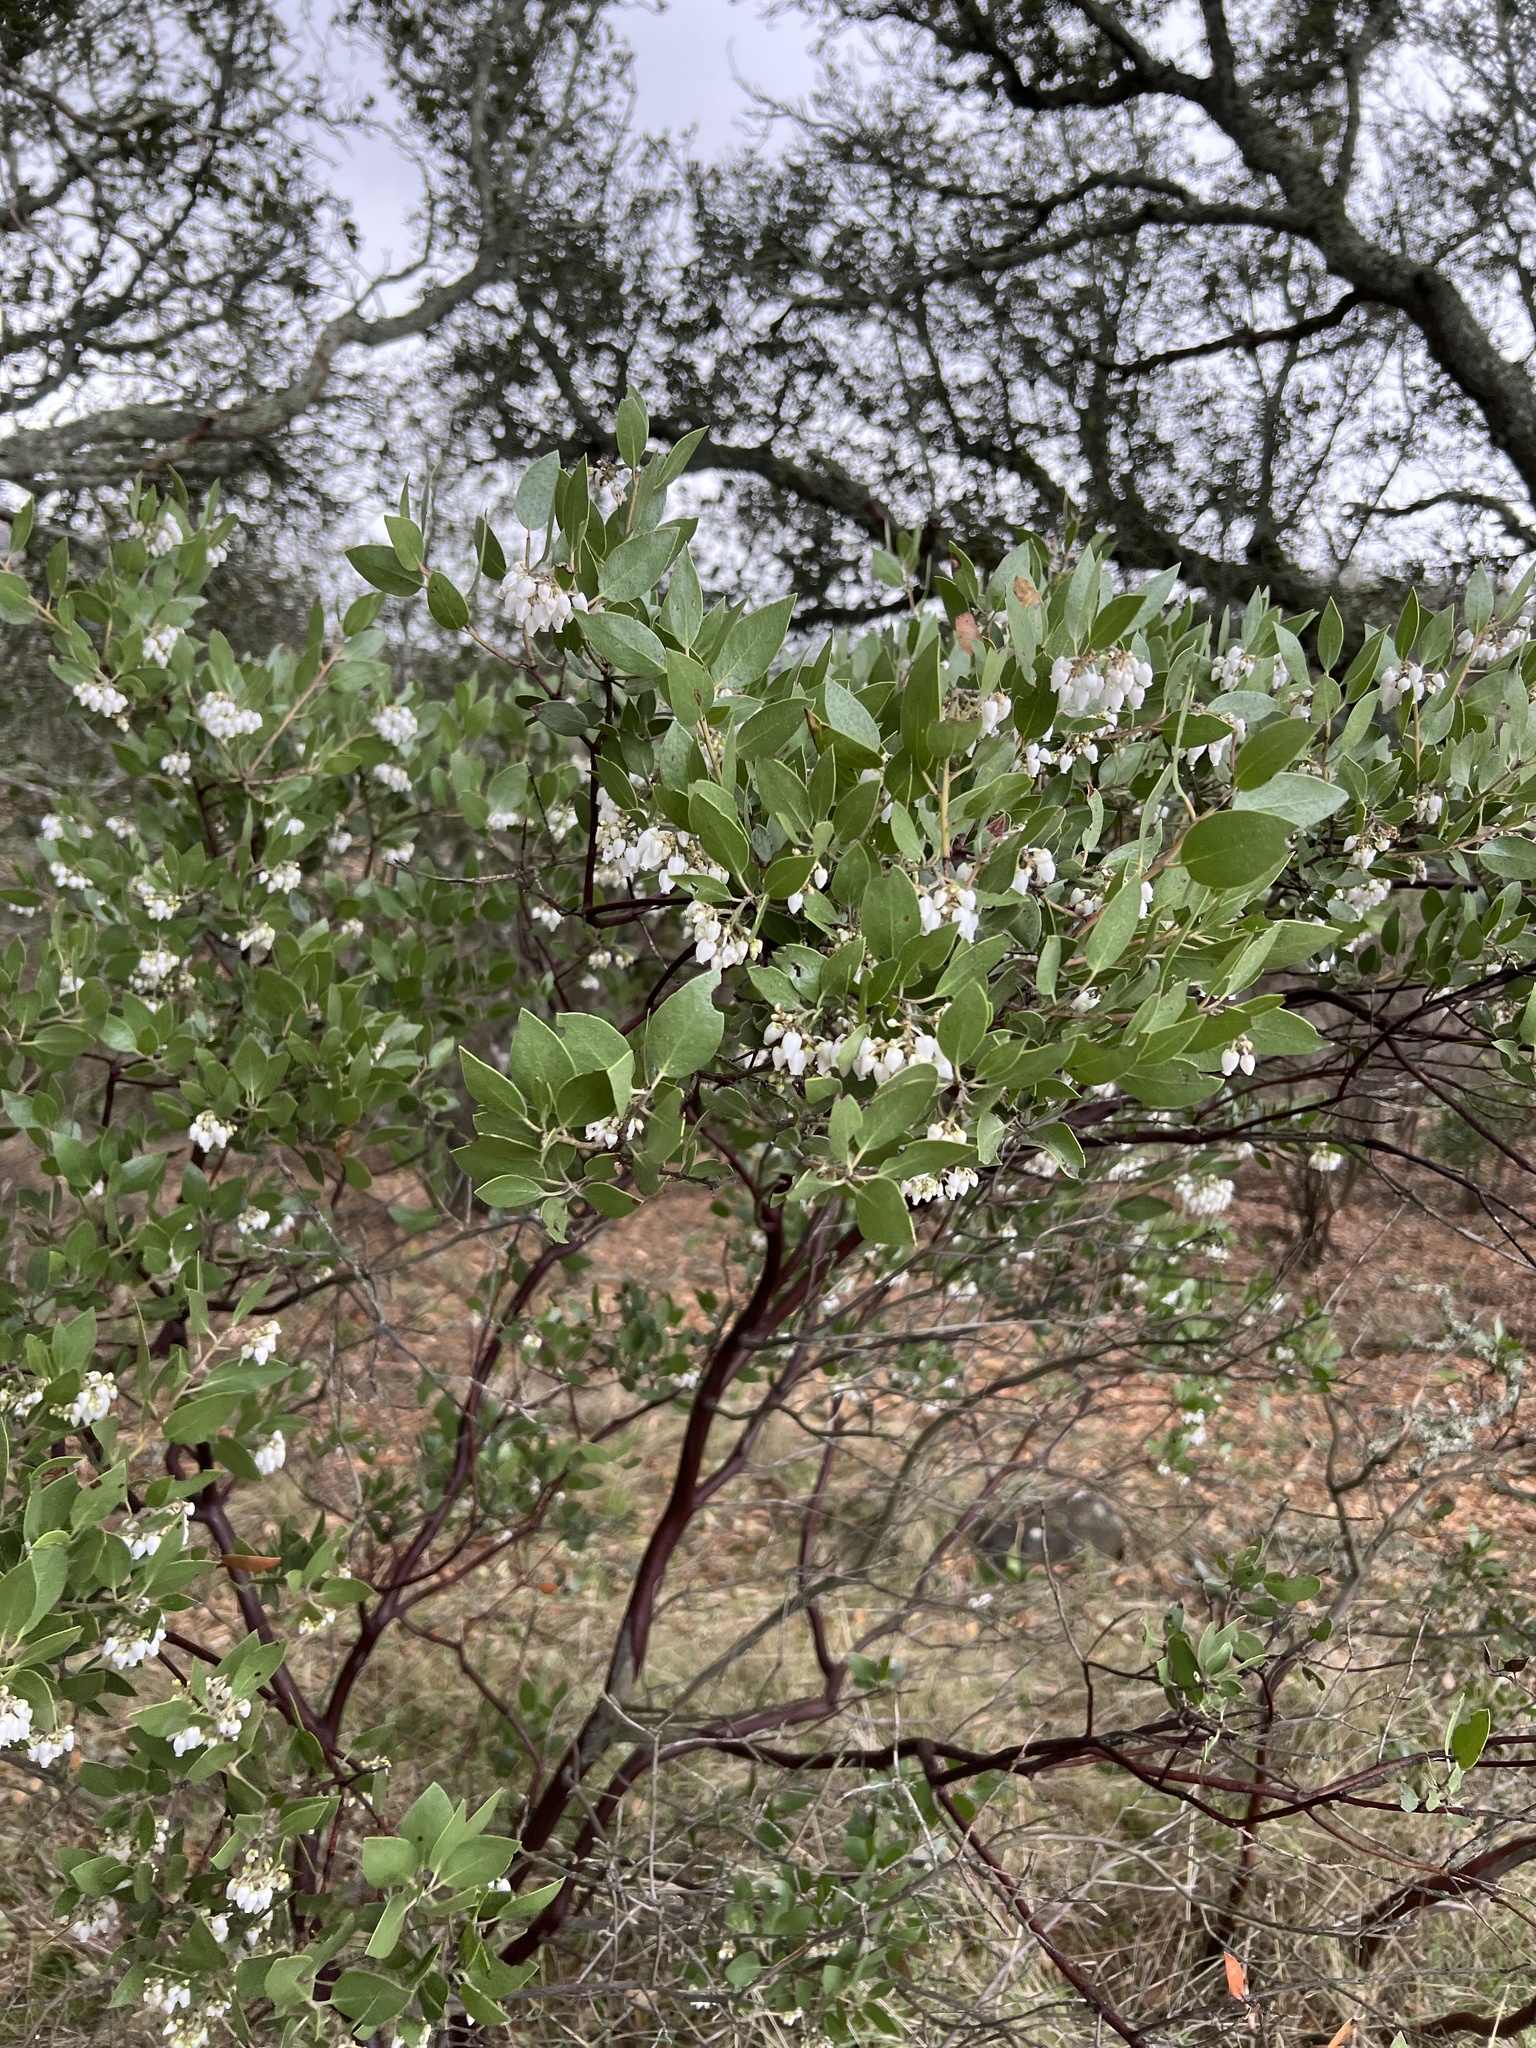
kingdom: Plantae
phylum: Tracheophyta
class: Magnoliopsida
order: Ericales
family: Ericaceae
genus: Arctostaphylos
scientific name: Arctostaphylos manzanita
